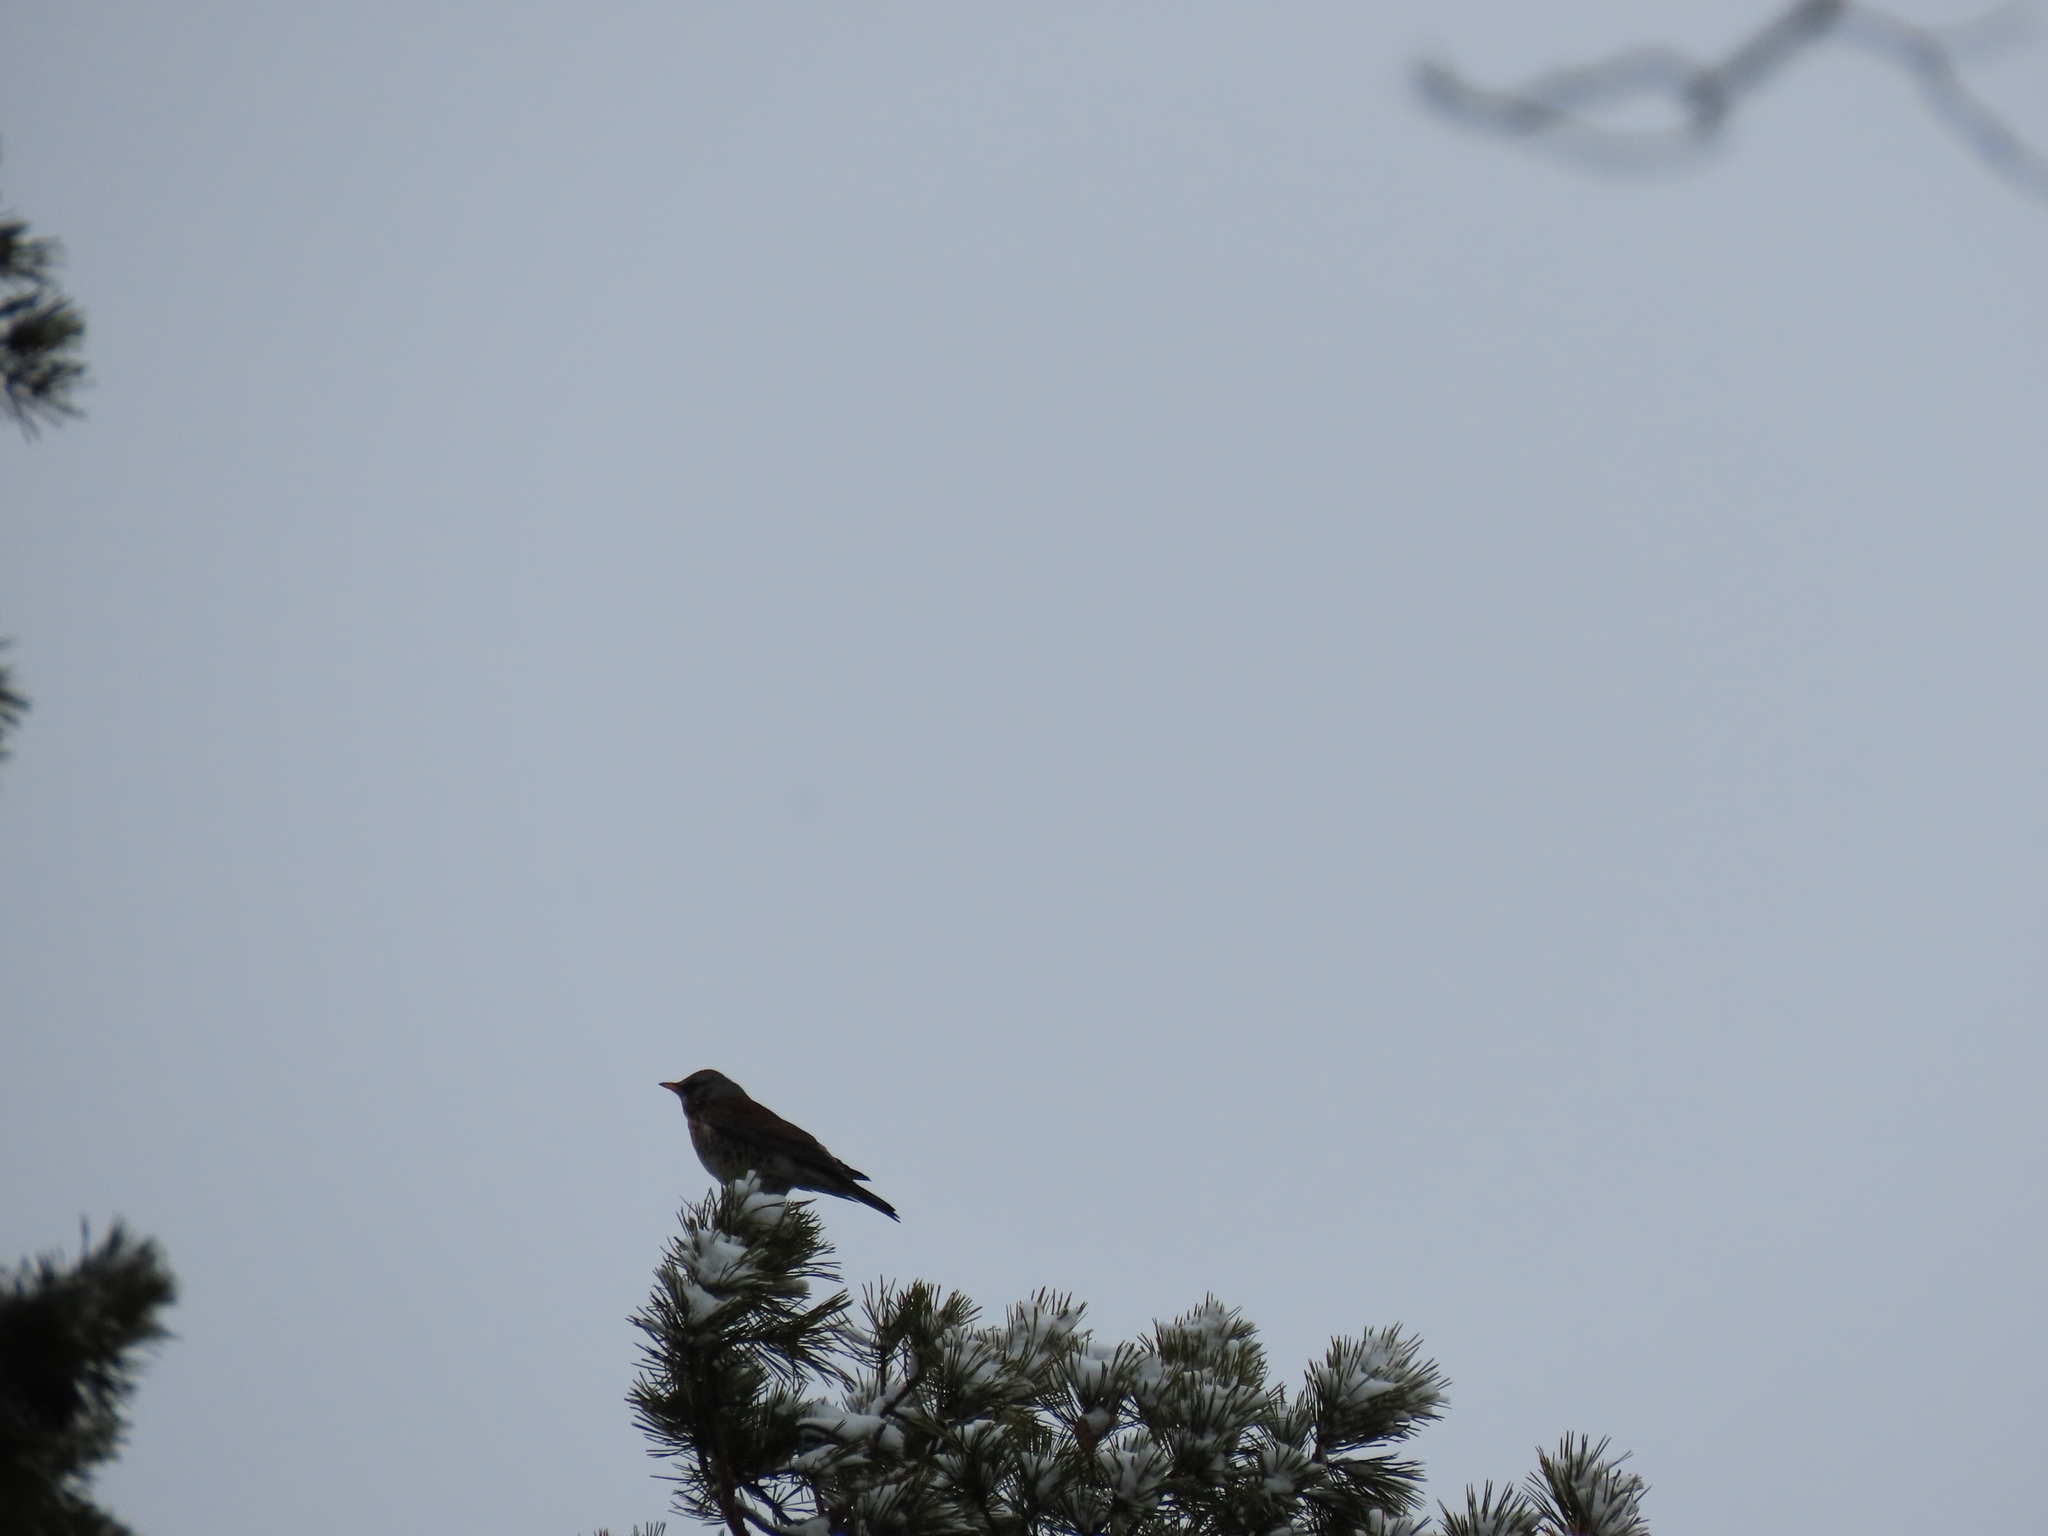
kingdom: Animalia
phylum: Chordata
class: Aves
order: Passeriformes
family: Turdidae
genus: Turdus
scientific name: Turdus pilaris
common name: Fieldfare
